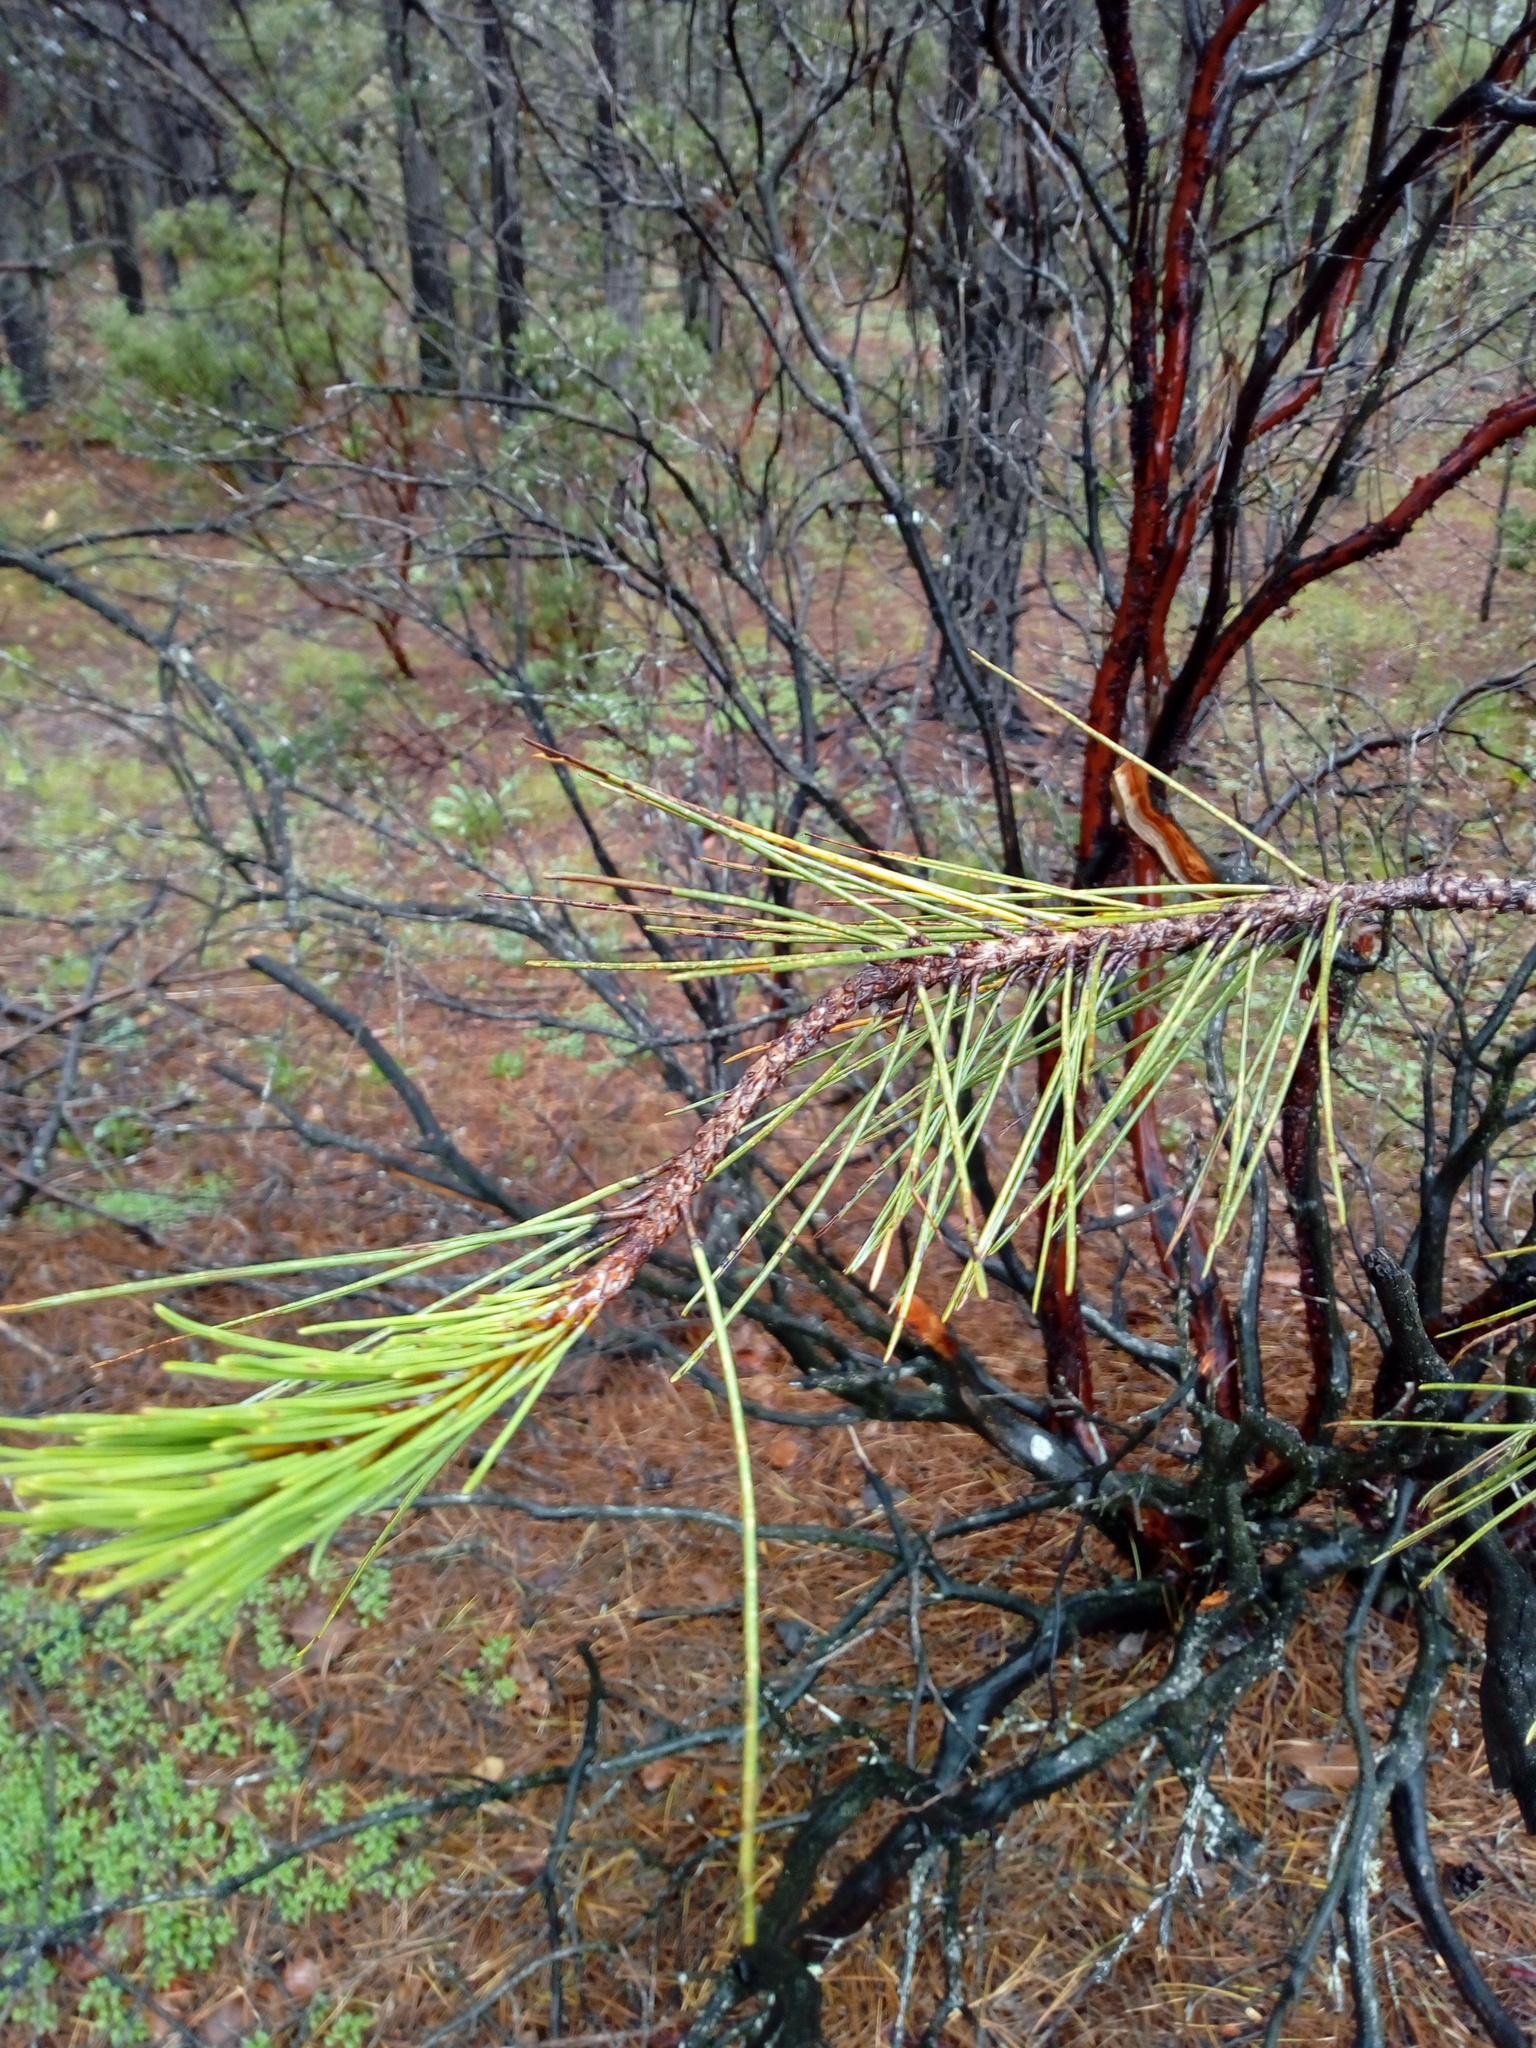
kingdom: Plantae
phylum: Tracheophyta
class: Pinopsida
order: Pinales
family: Pinaceae
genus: Pinus
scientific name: Pinus teocote
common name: Aztec pine
